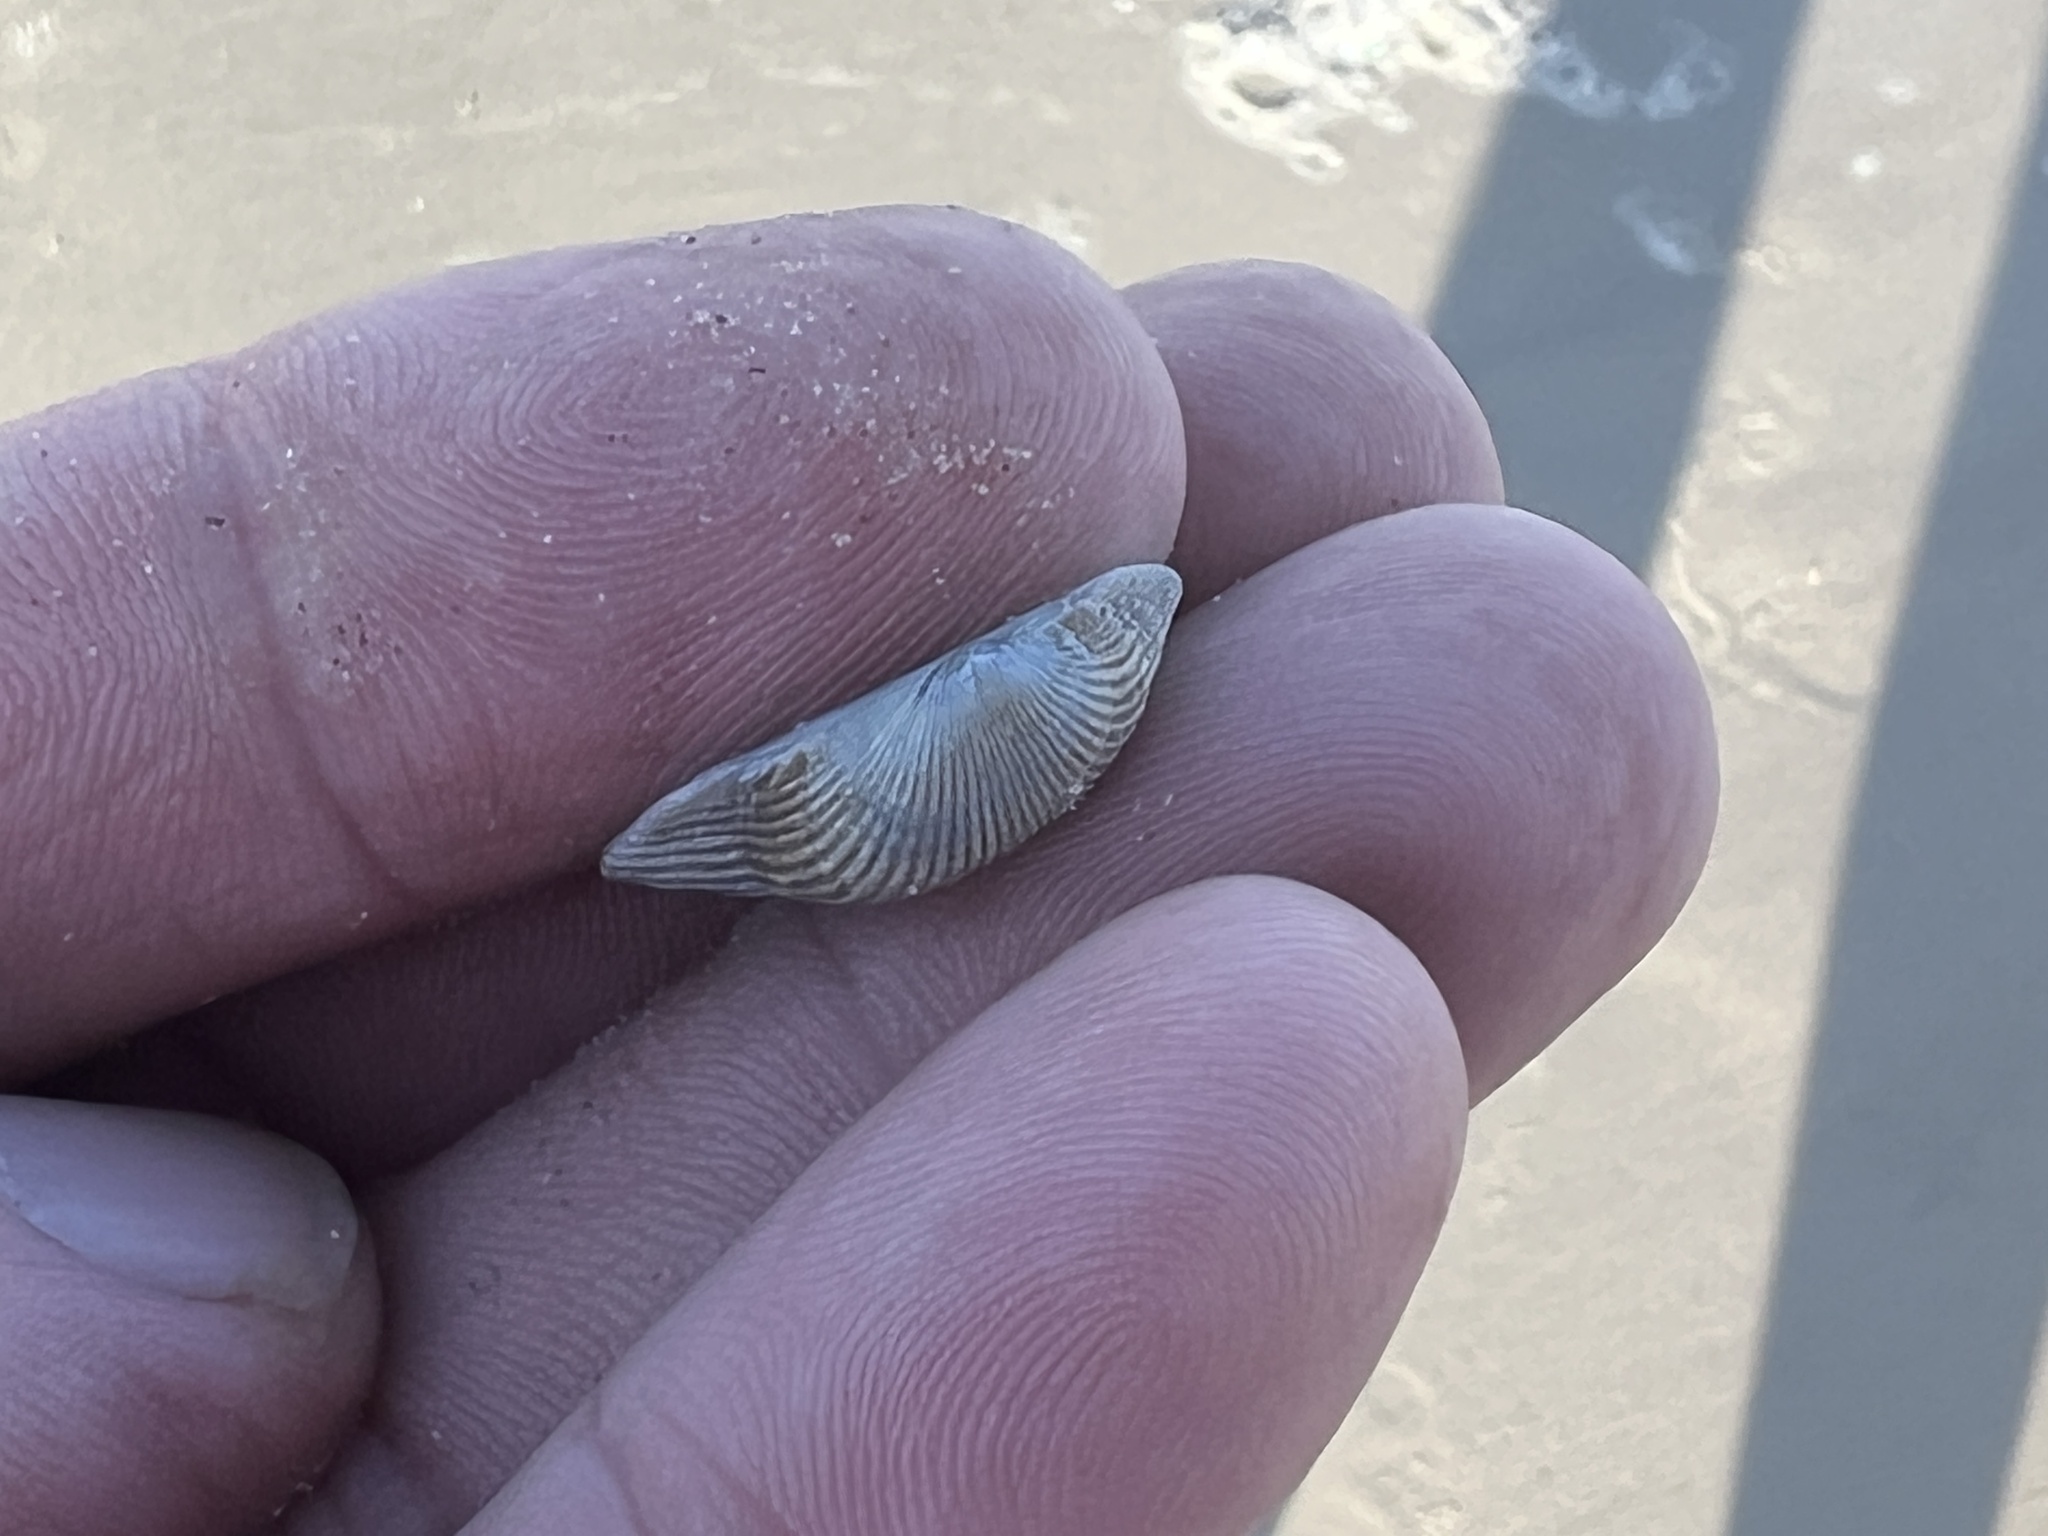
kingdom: Animalia
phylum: Mollusca
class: Bivalvia
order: Arcida
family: Arcidae
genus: Anadara
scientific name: Anadara transversa
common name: Transverse ark
